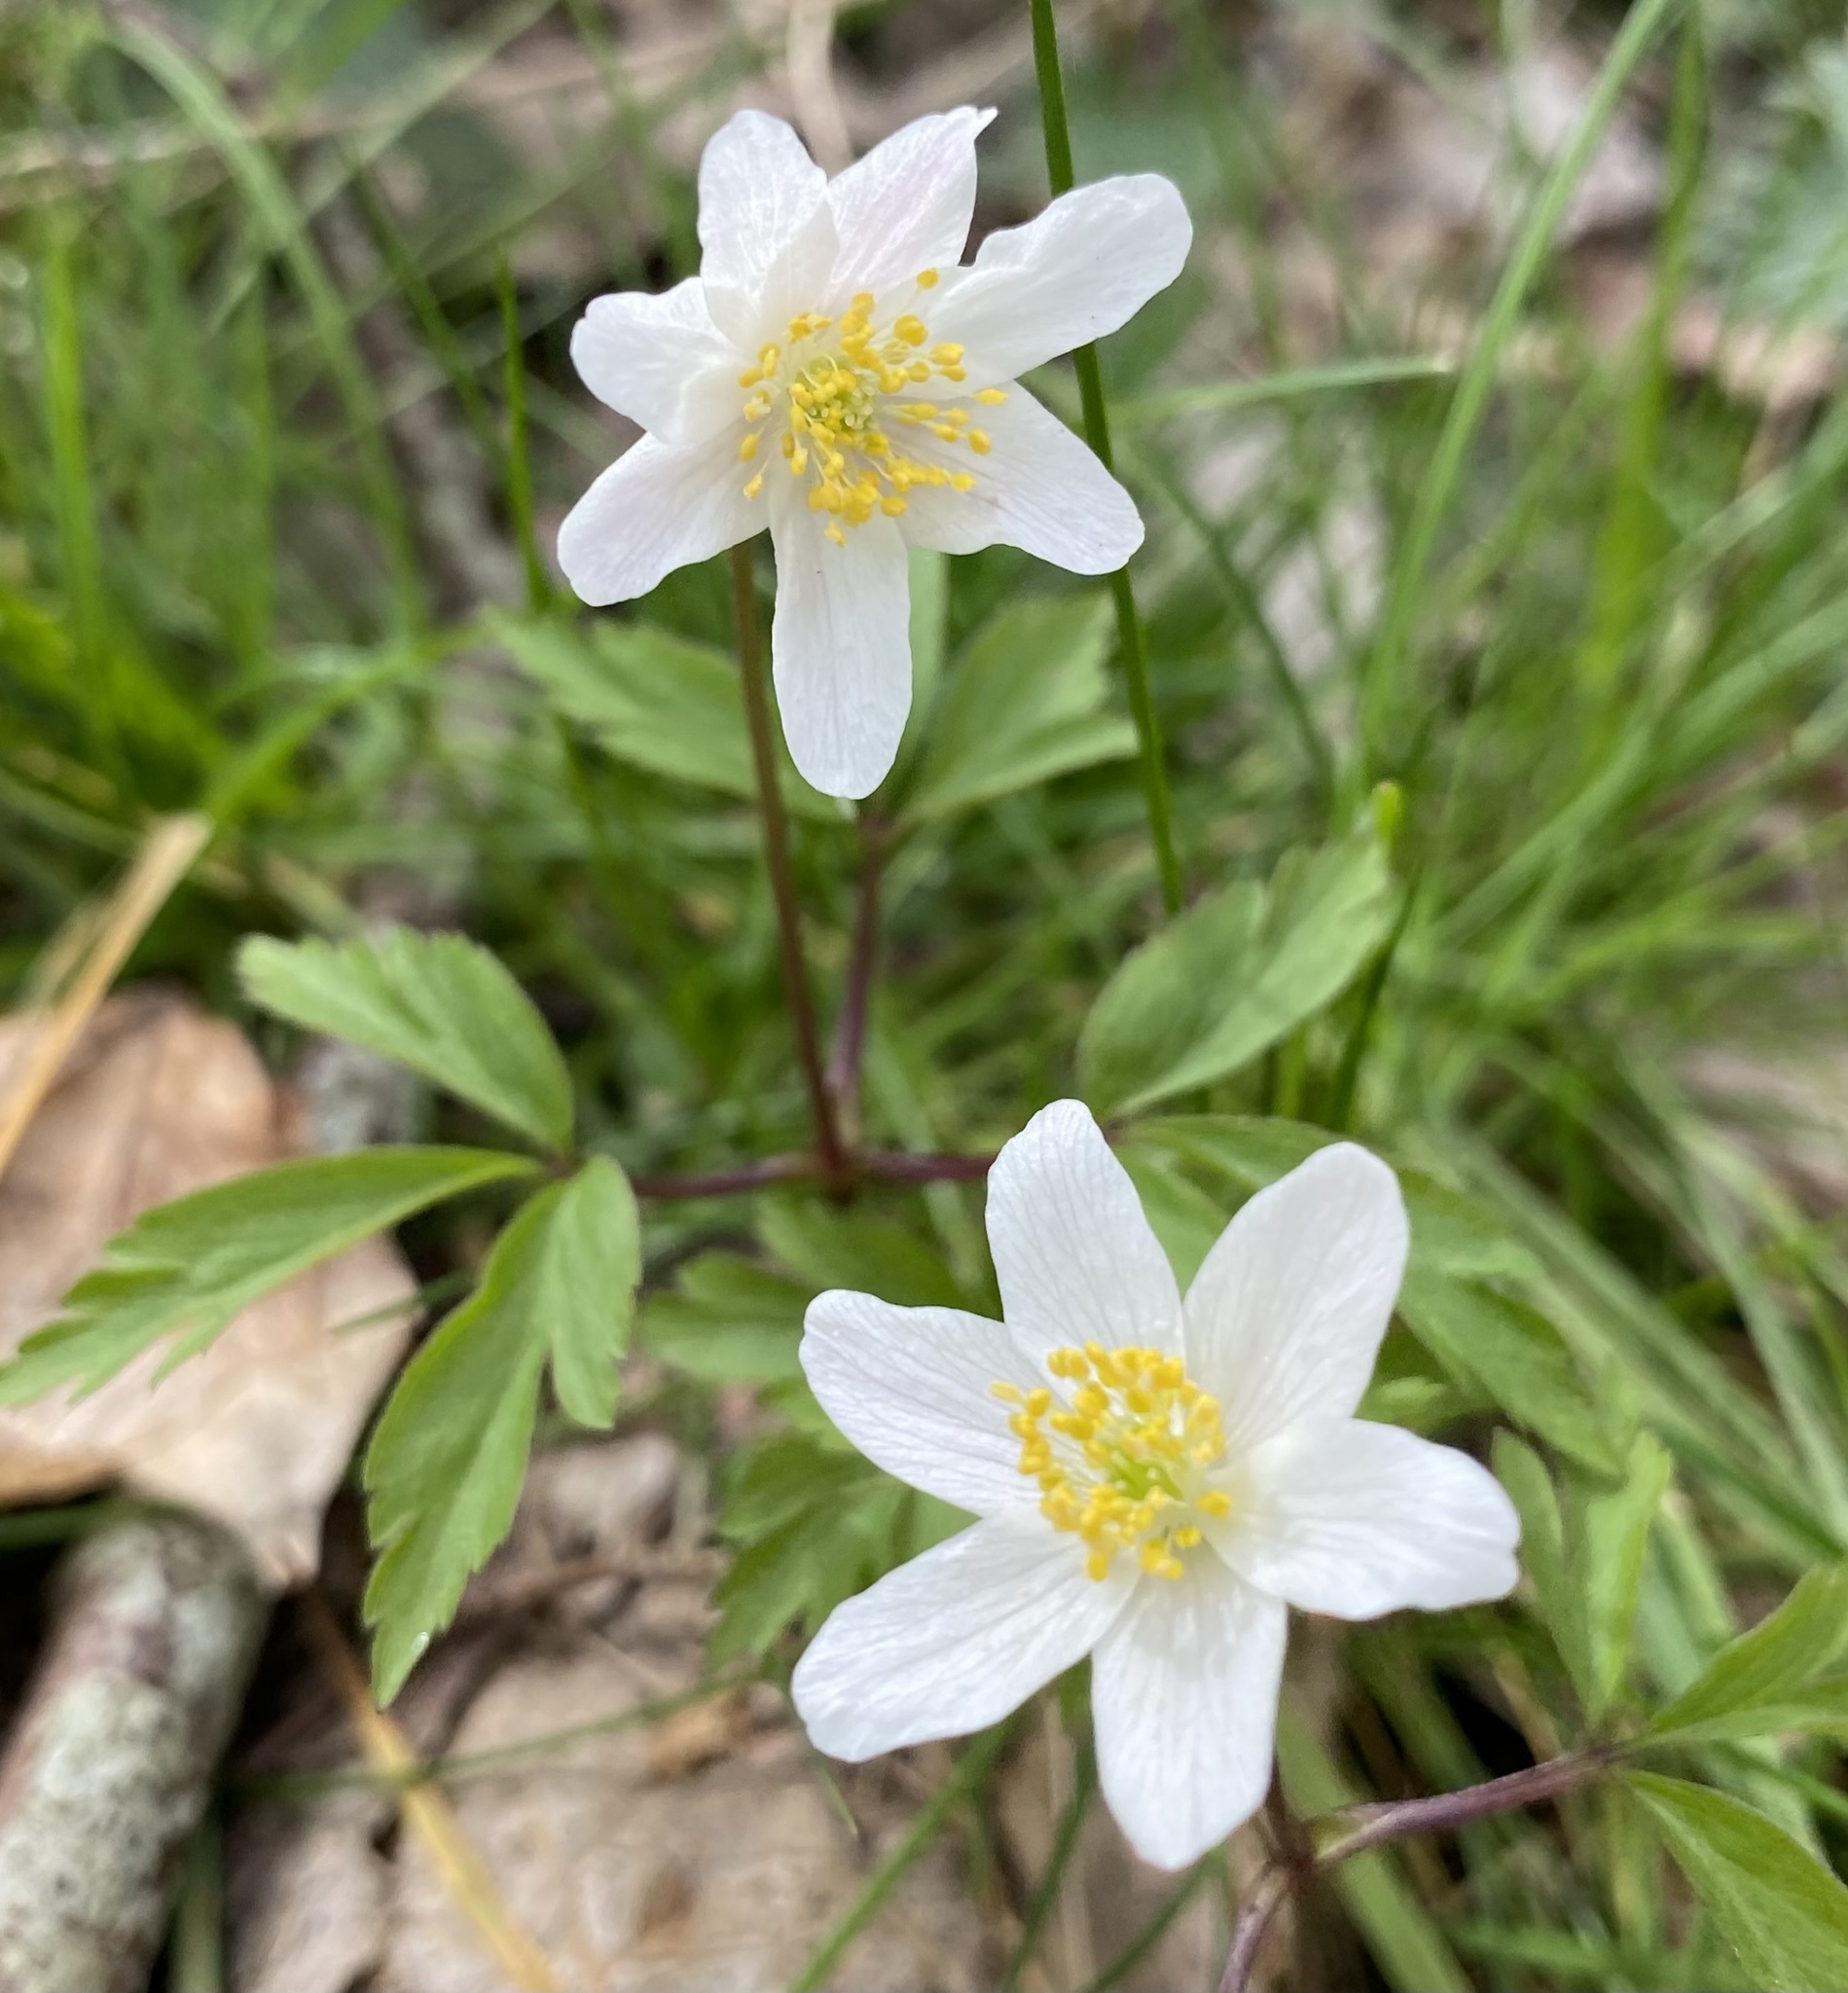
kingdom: Plantae
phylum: Tracheophyta
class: Magnoliopsida
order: Ranunculales
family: Ranunculaceae
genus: Anemone
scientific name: Anemone nemorosa
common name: Wood anemone
